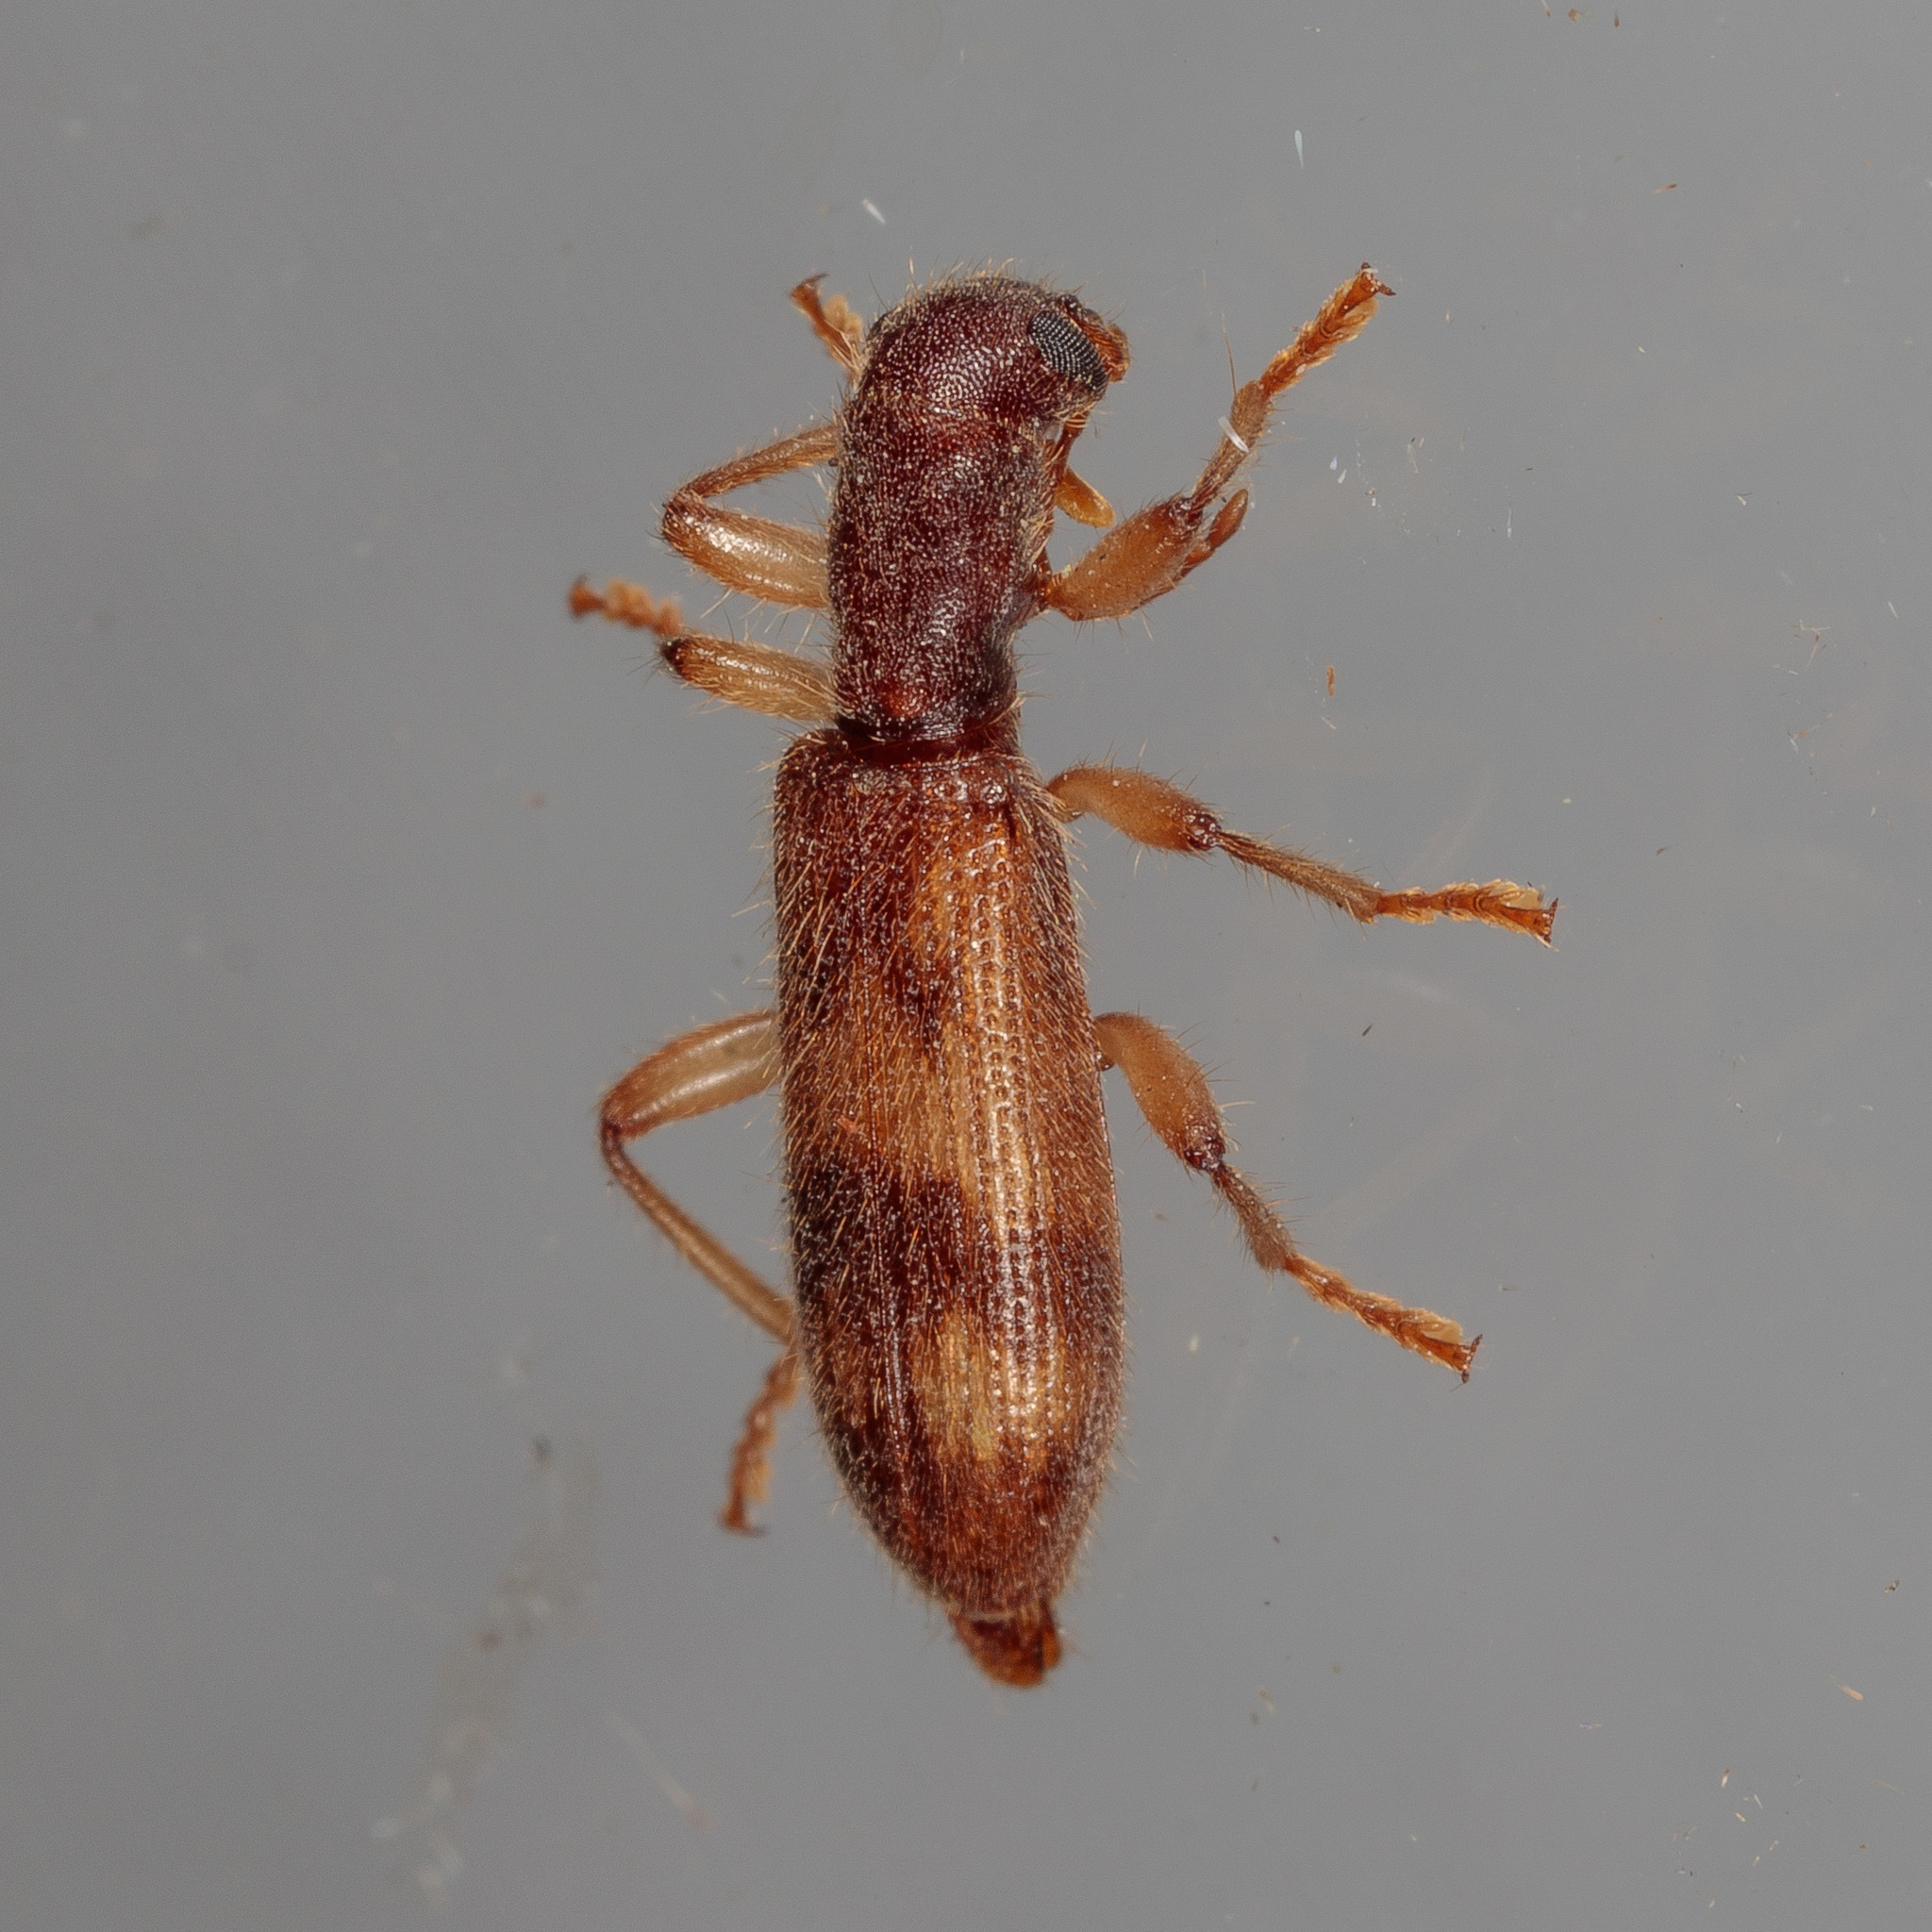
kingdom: Animalia
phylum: Arthropoda
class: Insecta
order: Coleoptera
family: Cleridae
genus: Cymatodera
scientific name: Cymatodera undulata
